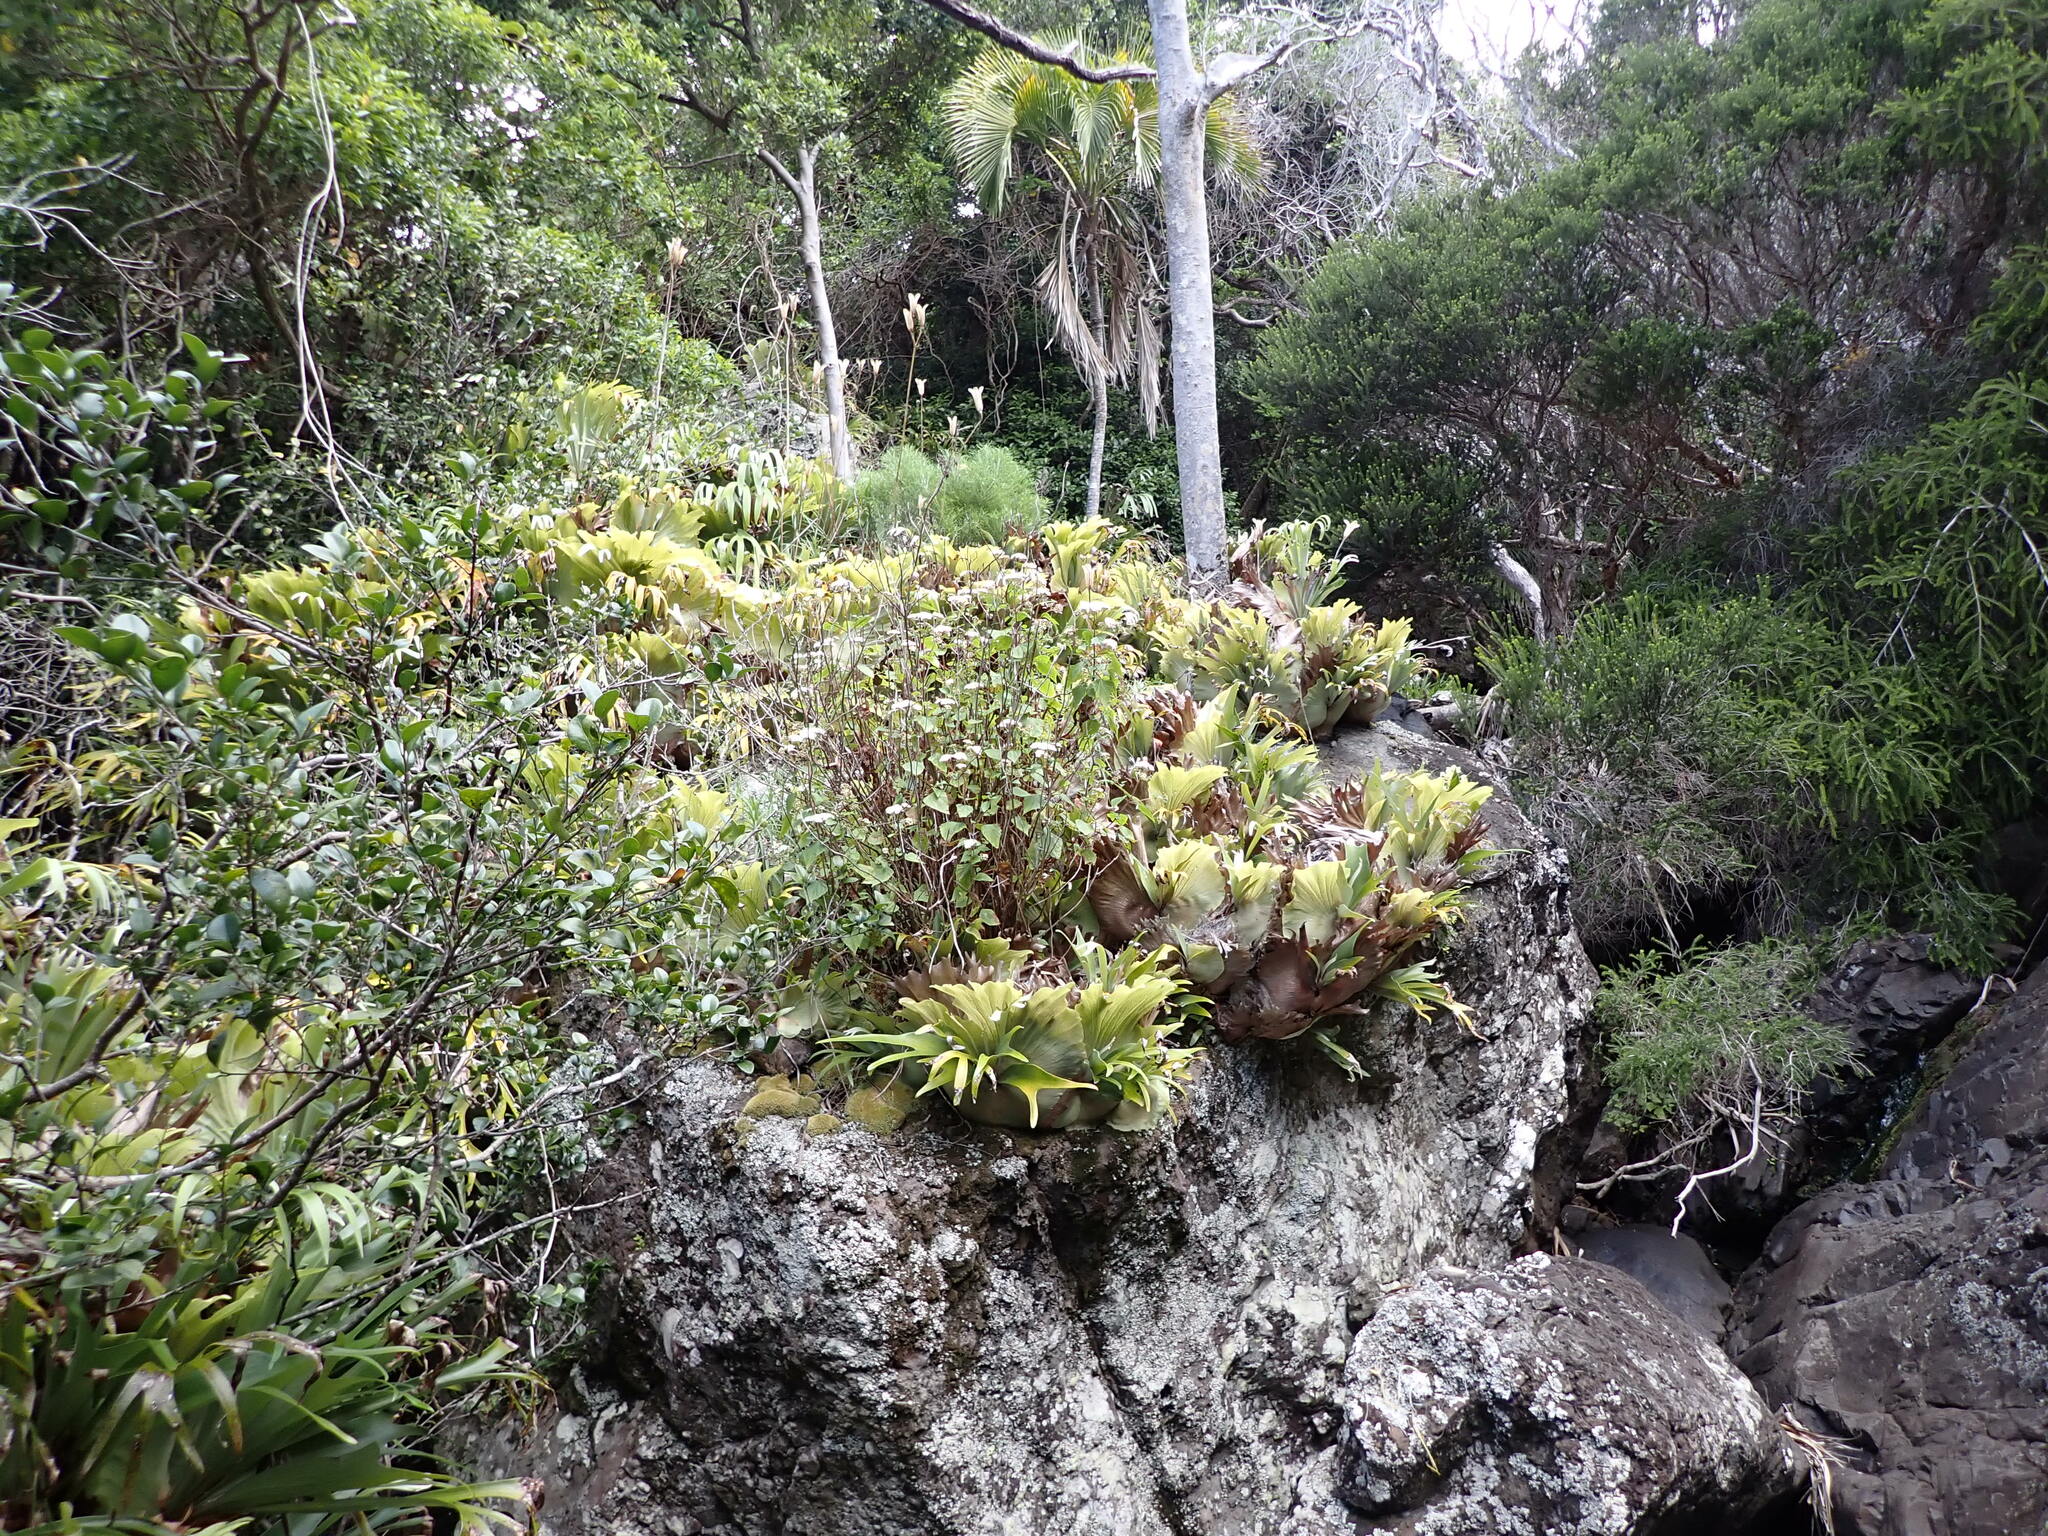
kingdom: Plantae
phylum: Tracheophyta
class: Polypodiopsida
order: Polypodiales
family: Polypodiaceae
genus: Platycerium
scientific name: Platycerium bifurcatum
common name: Elkhorn fern
